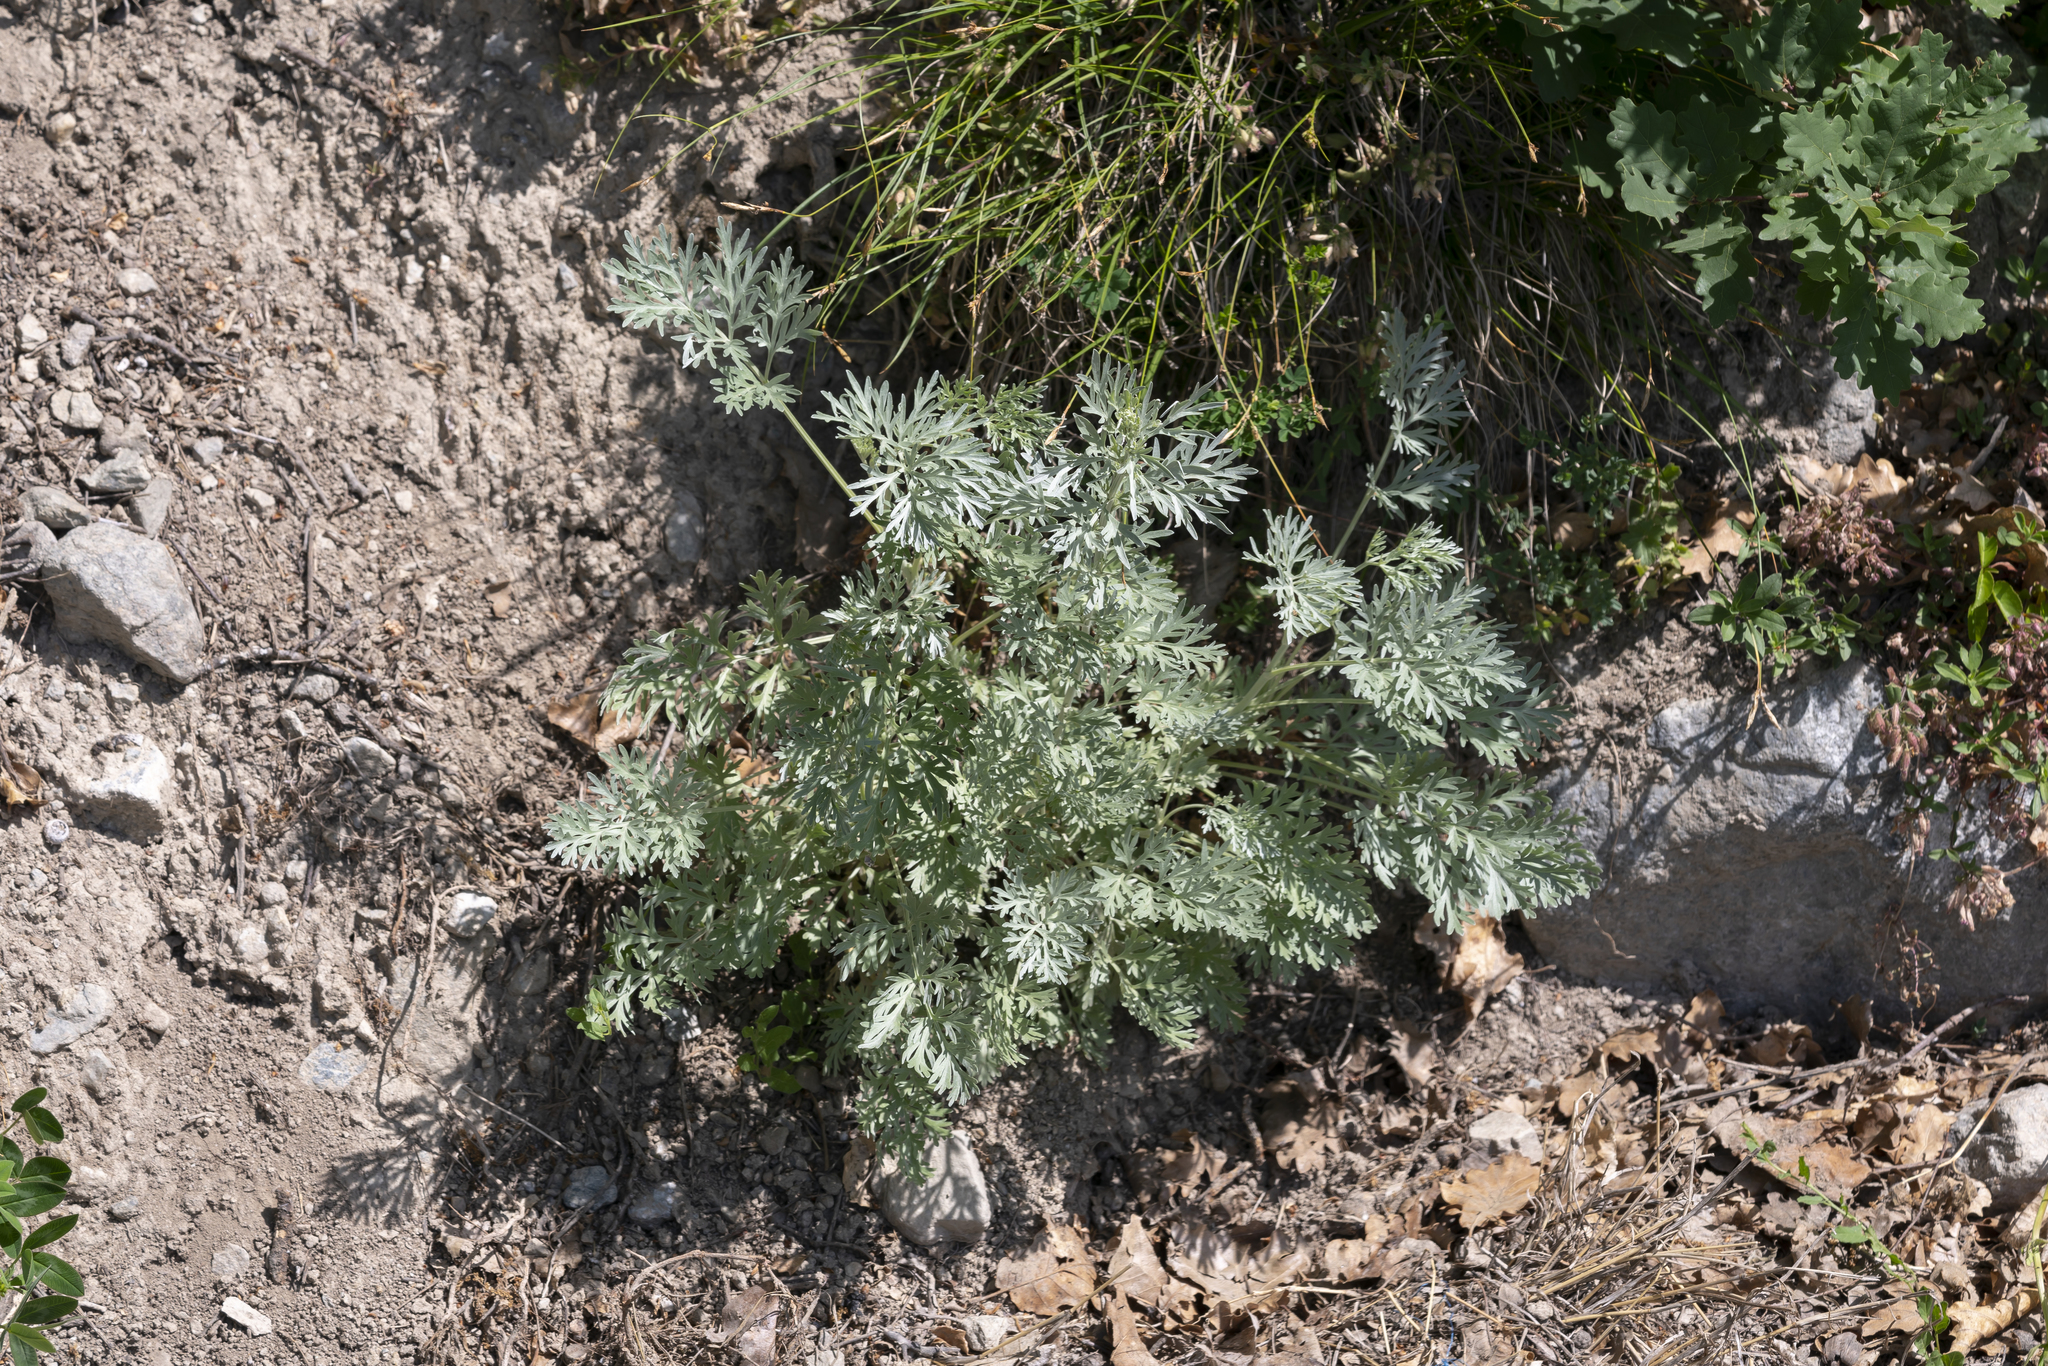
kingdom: Plantae
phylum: Tracheophyta
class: Magnoliopsida
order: Asterales
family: Asteraceae
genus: Artemisia
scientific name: Artemisia absinthium
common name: Wormwood
